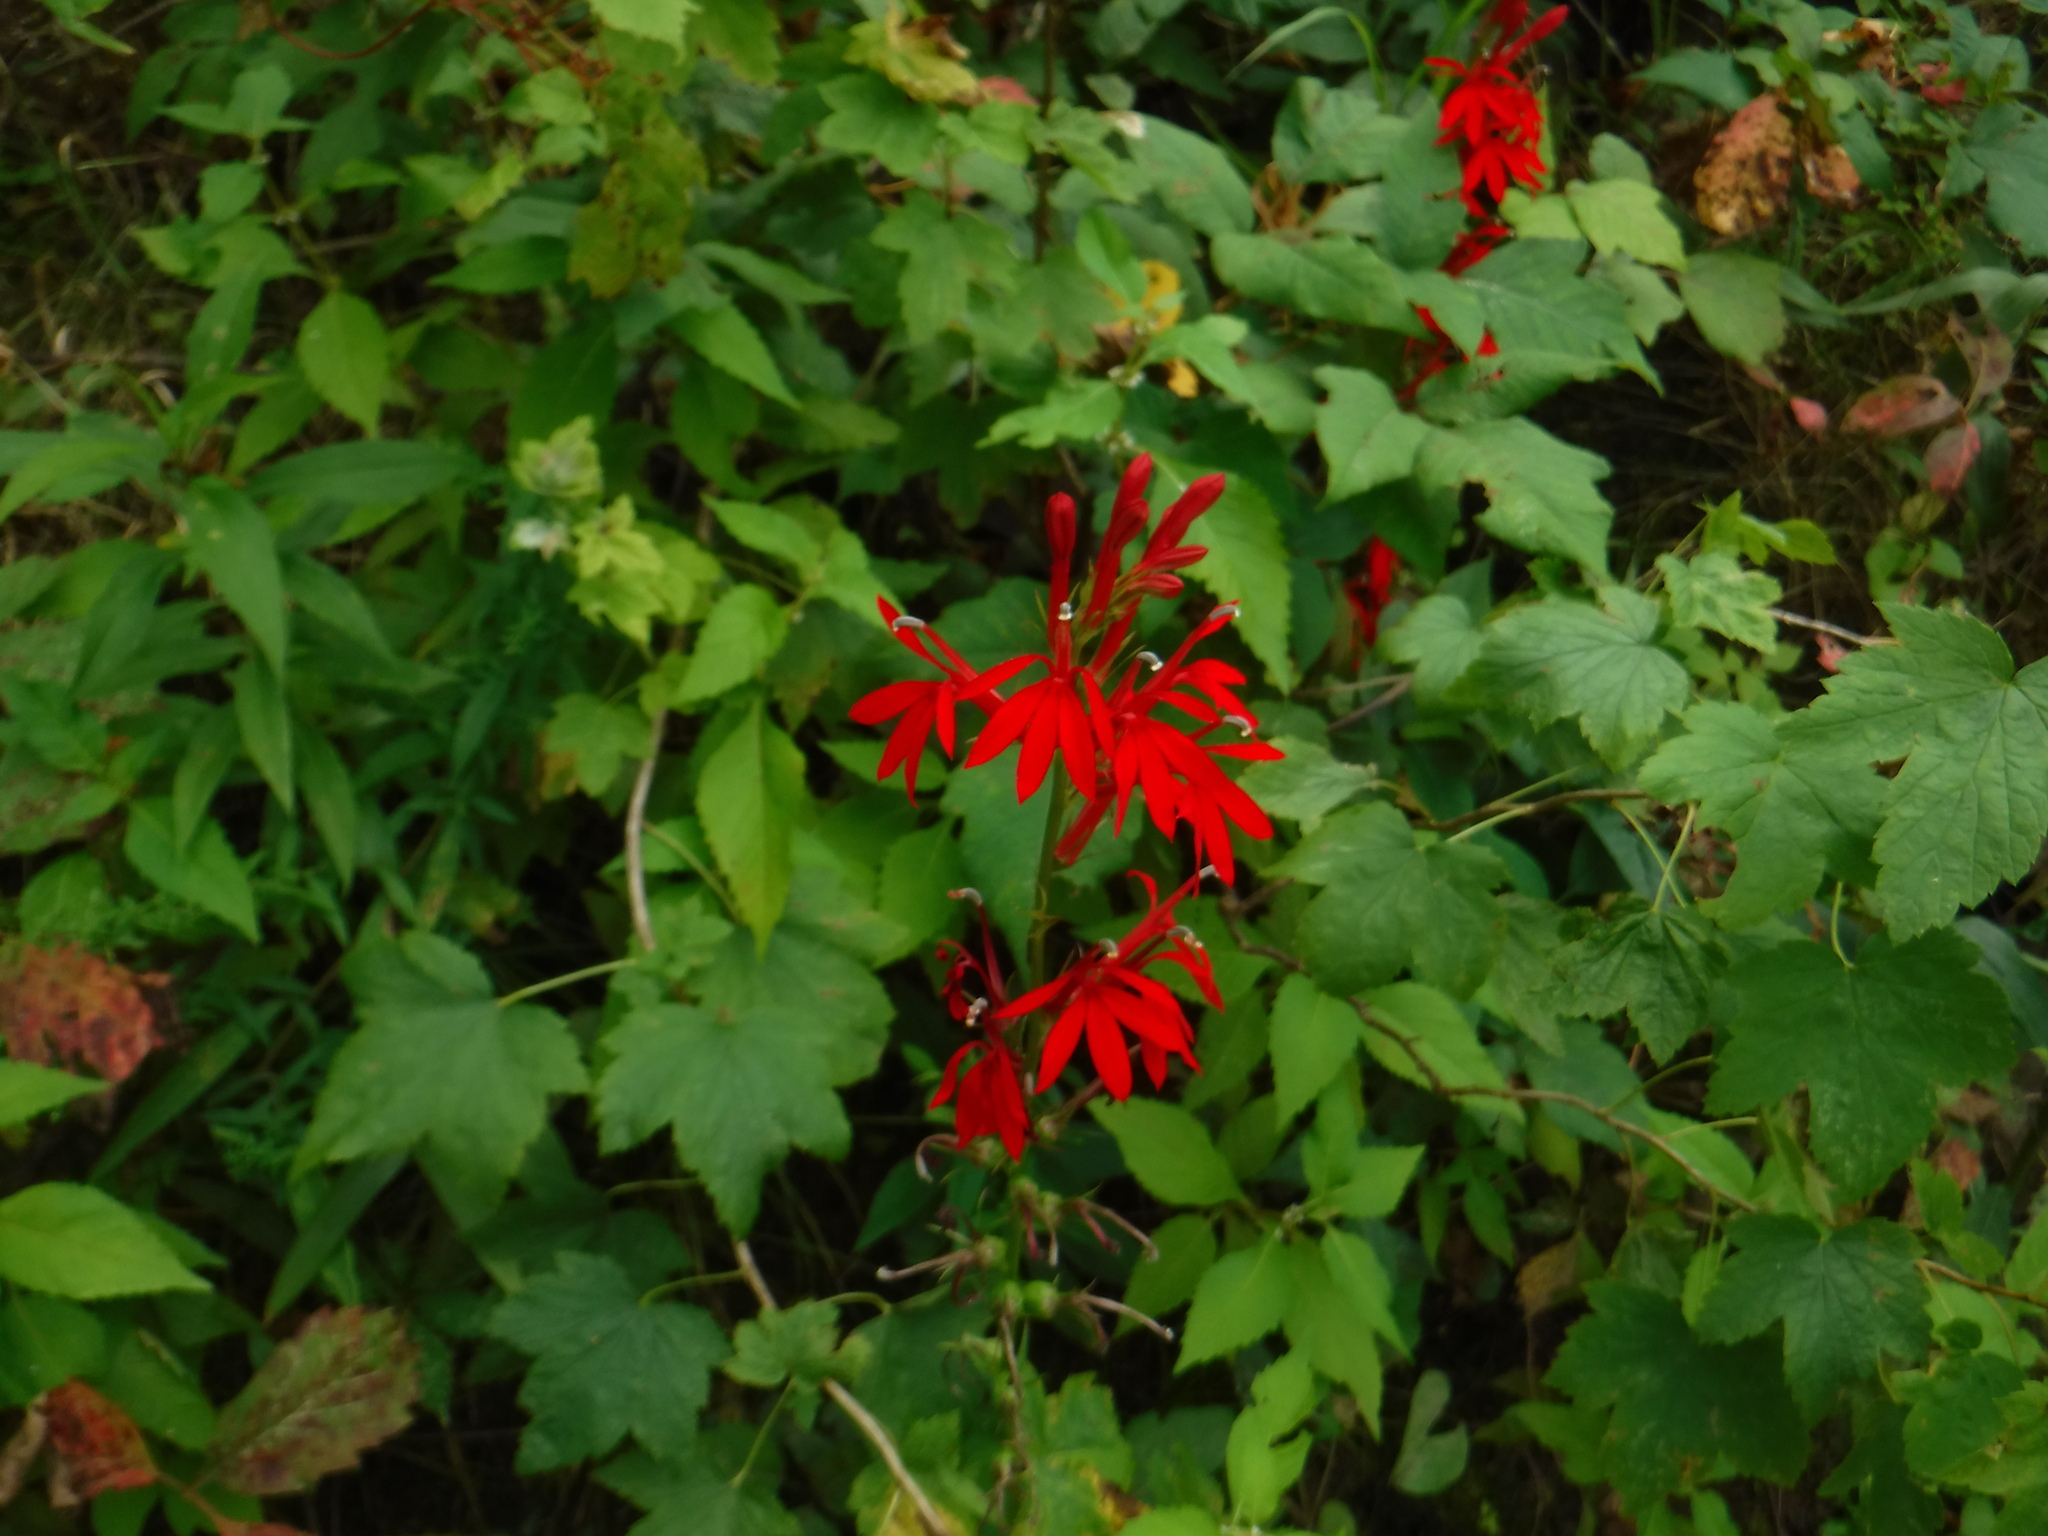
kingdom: Plantae
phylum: Tracheophyta
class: Magnoliopsida
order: Asterales
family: Campanulaceae
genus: Lobelia
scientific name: Lobelia cardinalis
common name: Cardinal flower
